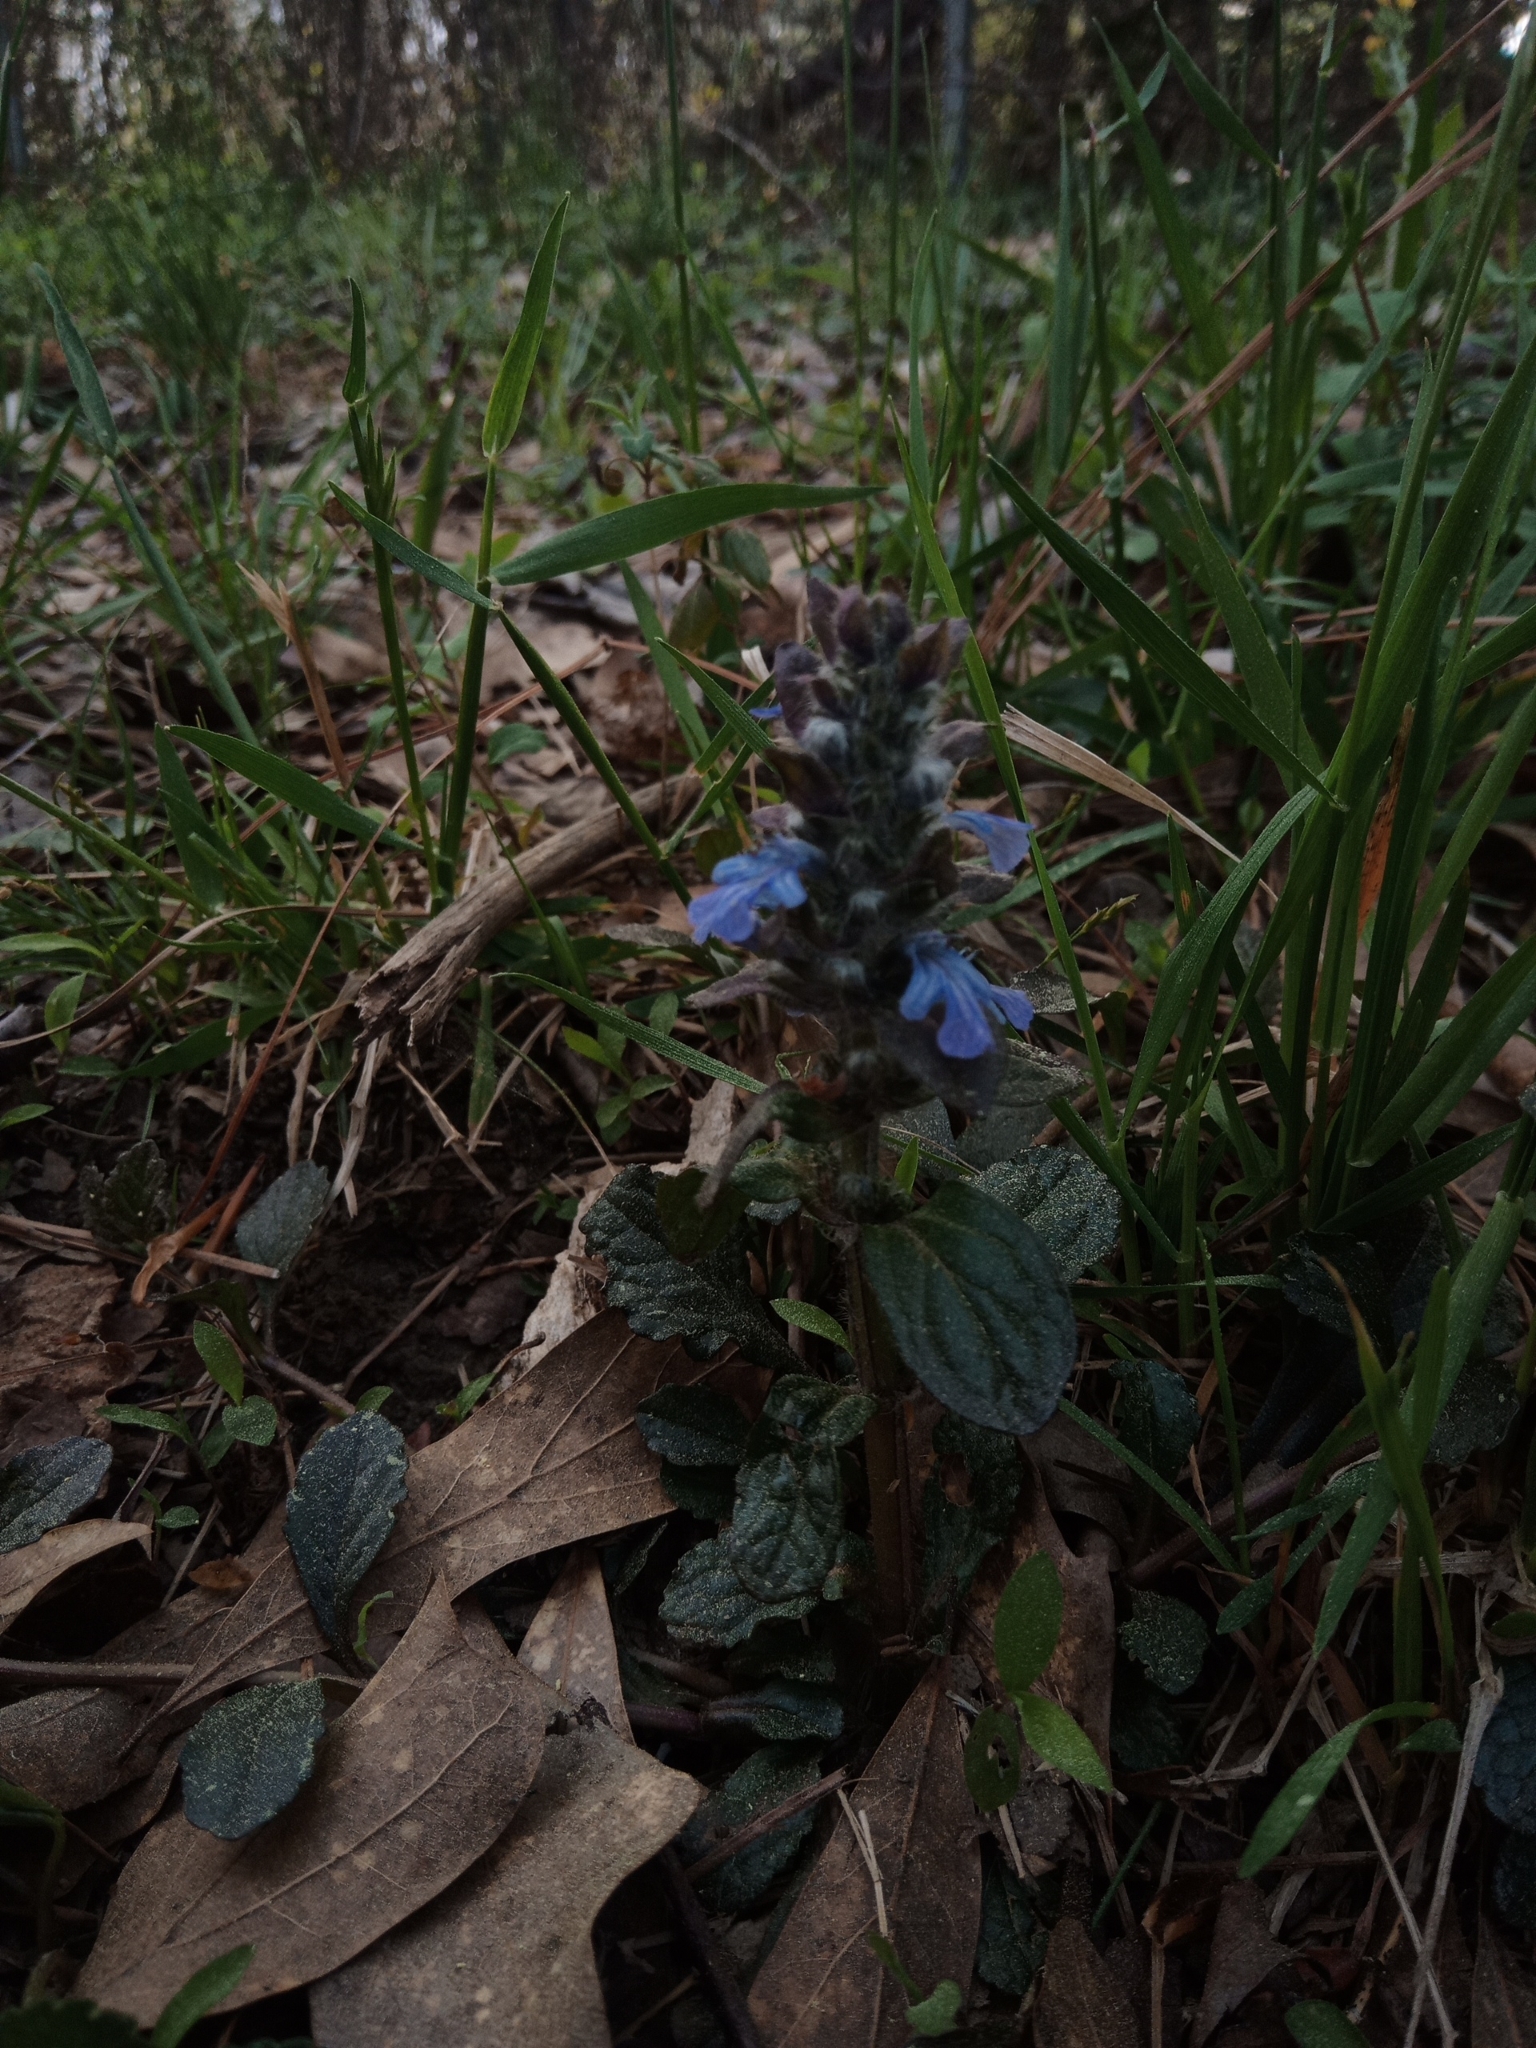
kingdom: Plantae
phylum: Tracheophyta
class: Magnoliopsida
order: Lamiales
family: Lamiaceae
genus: Ajuga
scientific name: Ajuga reptans
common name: Bugle
